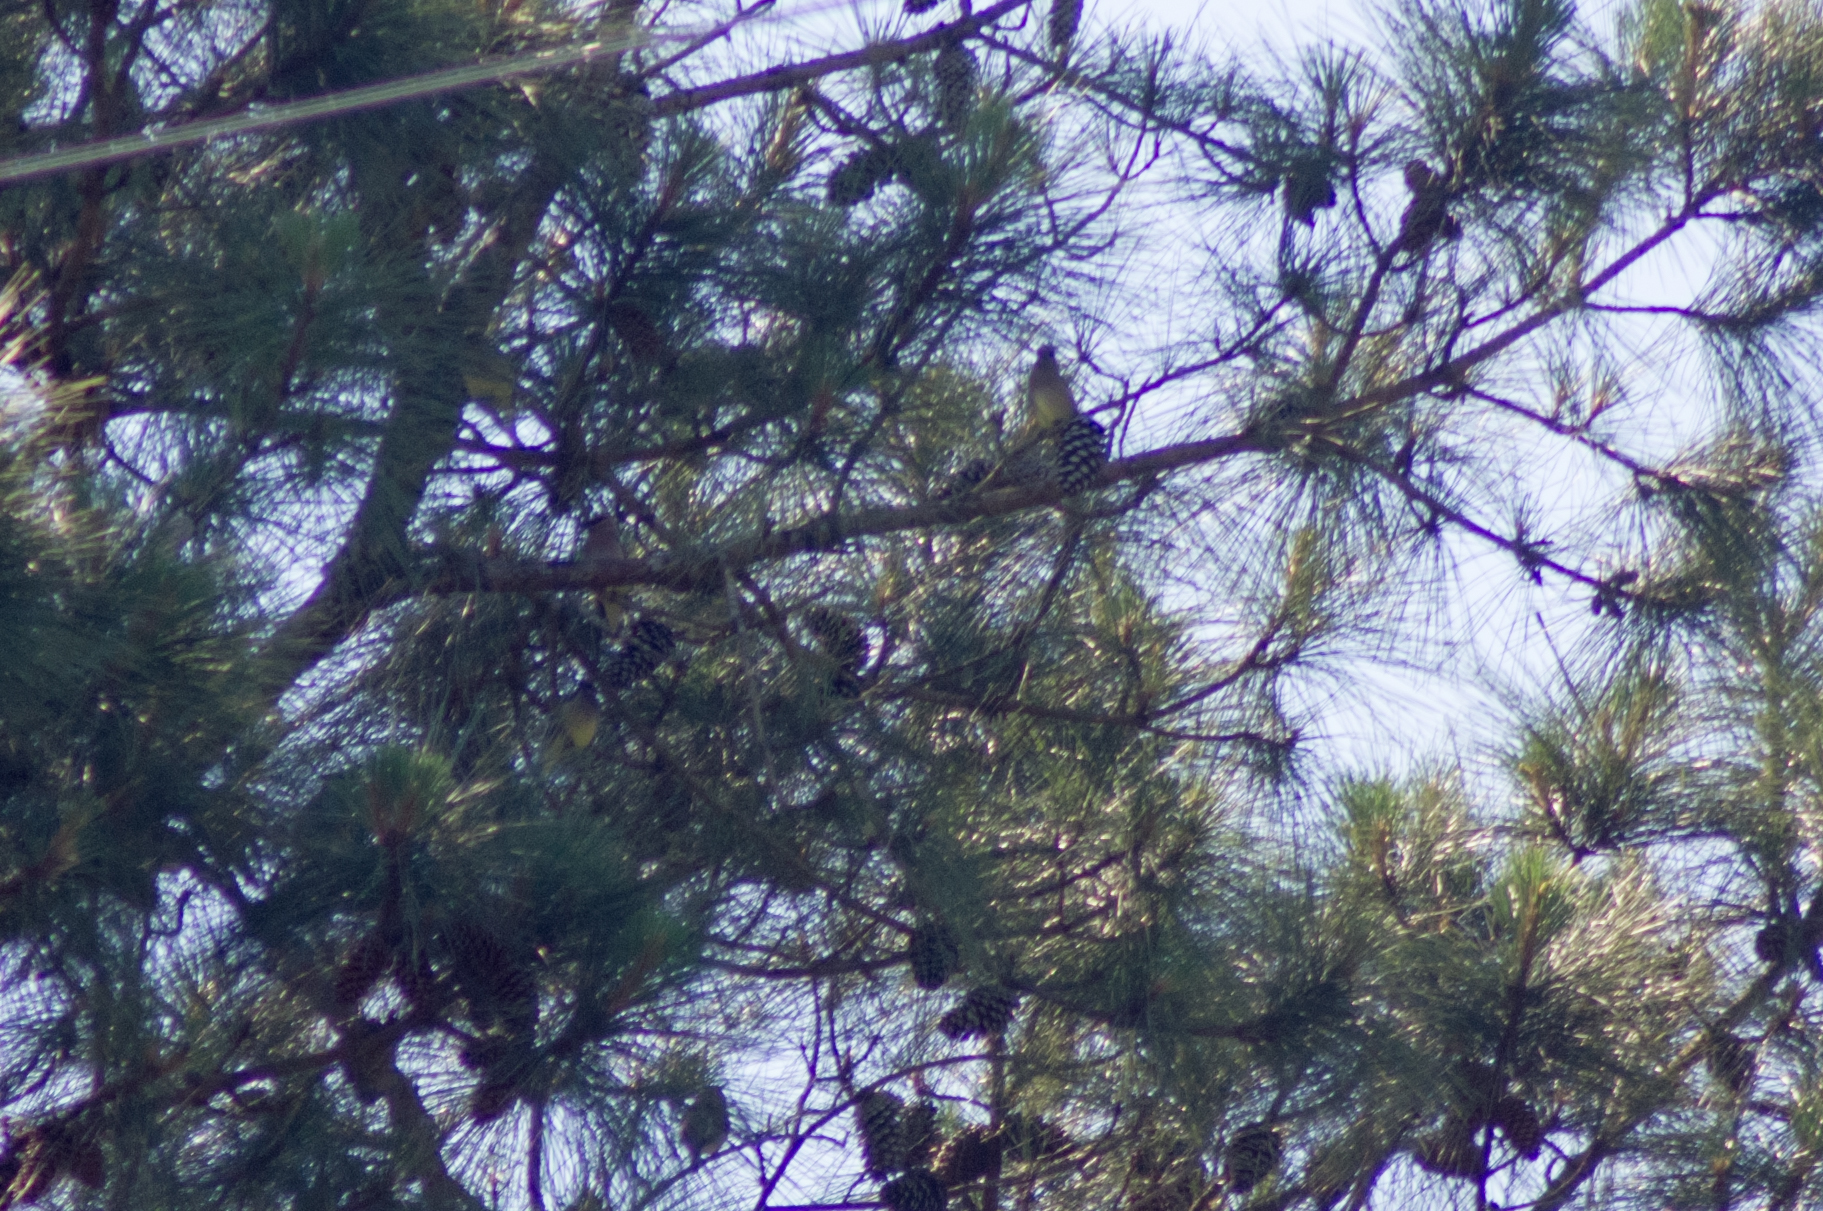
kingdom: Animalia
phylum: Chordata
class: Aves
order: Passeriformes
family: Bombycillidae
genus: Bombycilla
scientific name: Bombycilla cedrorum
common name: Cedar waxwing
